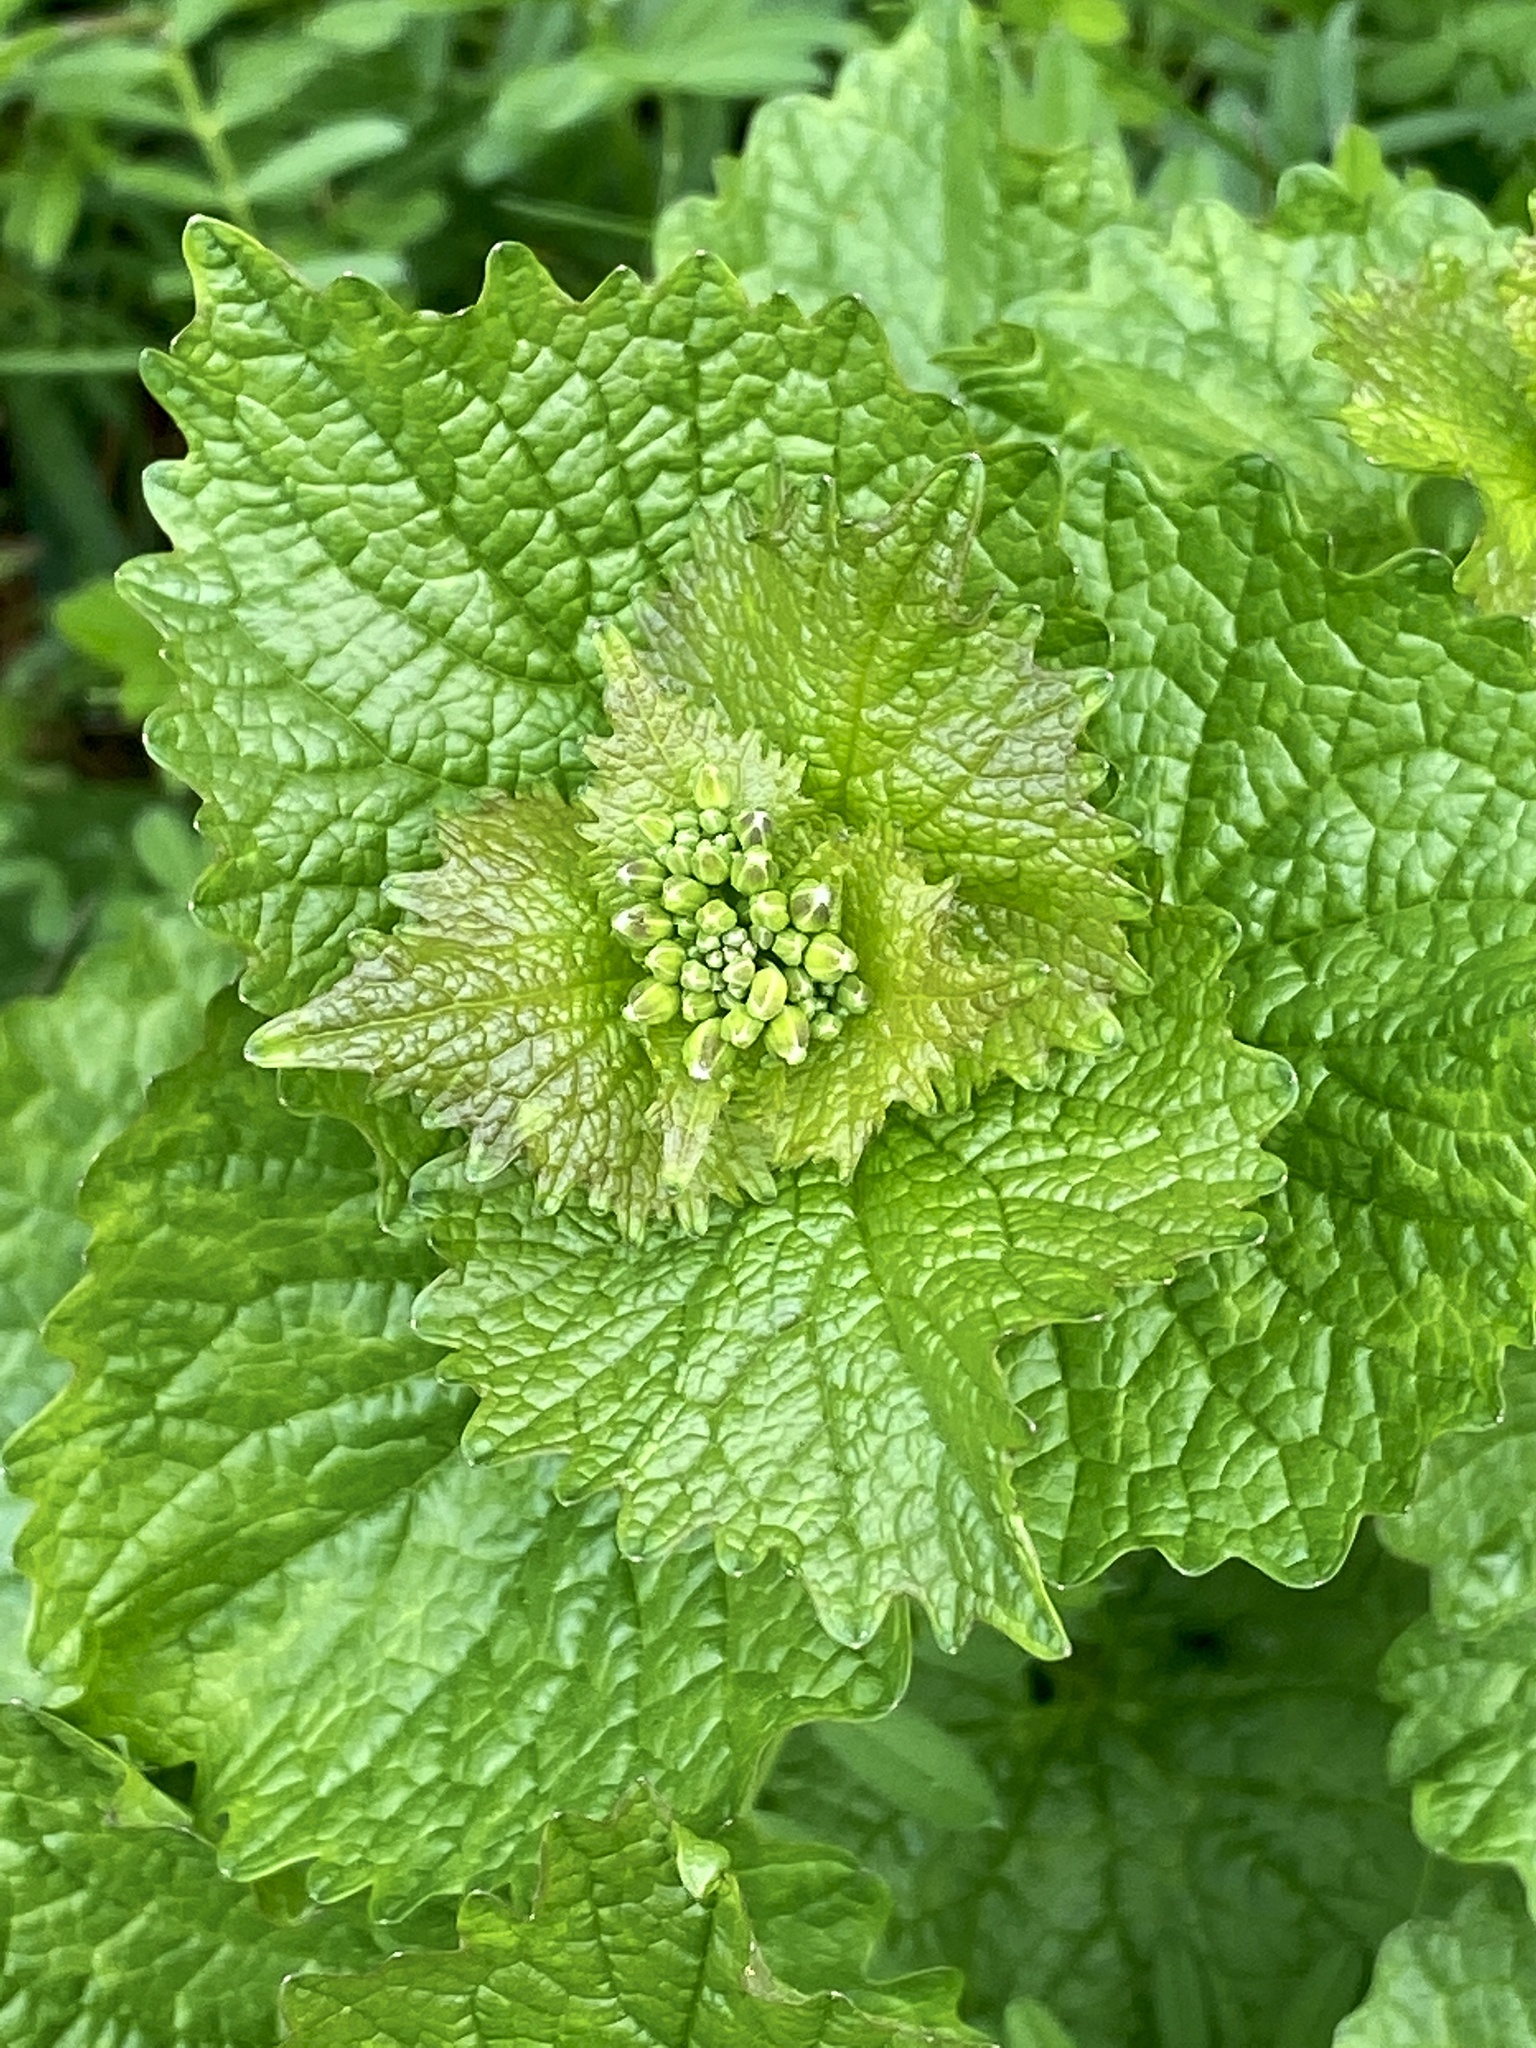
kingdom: Plantae
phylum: Tracheophyta
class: Magnoliopsida
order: Brassicales
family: Brassicaceae
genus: Alliaria
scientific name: Alliaria petiolata
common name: Garlic mustard
